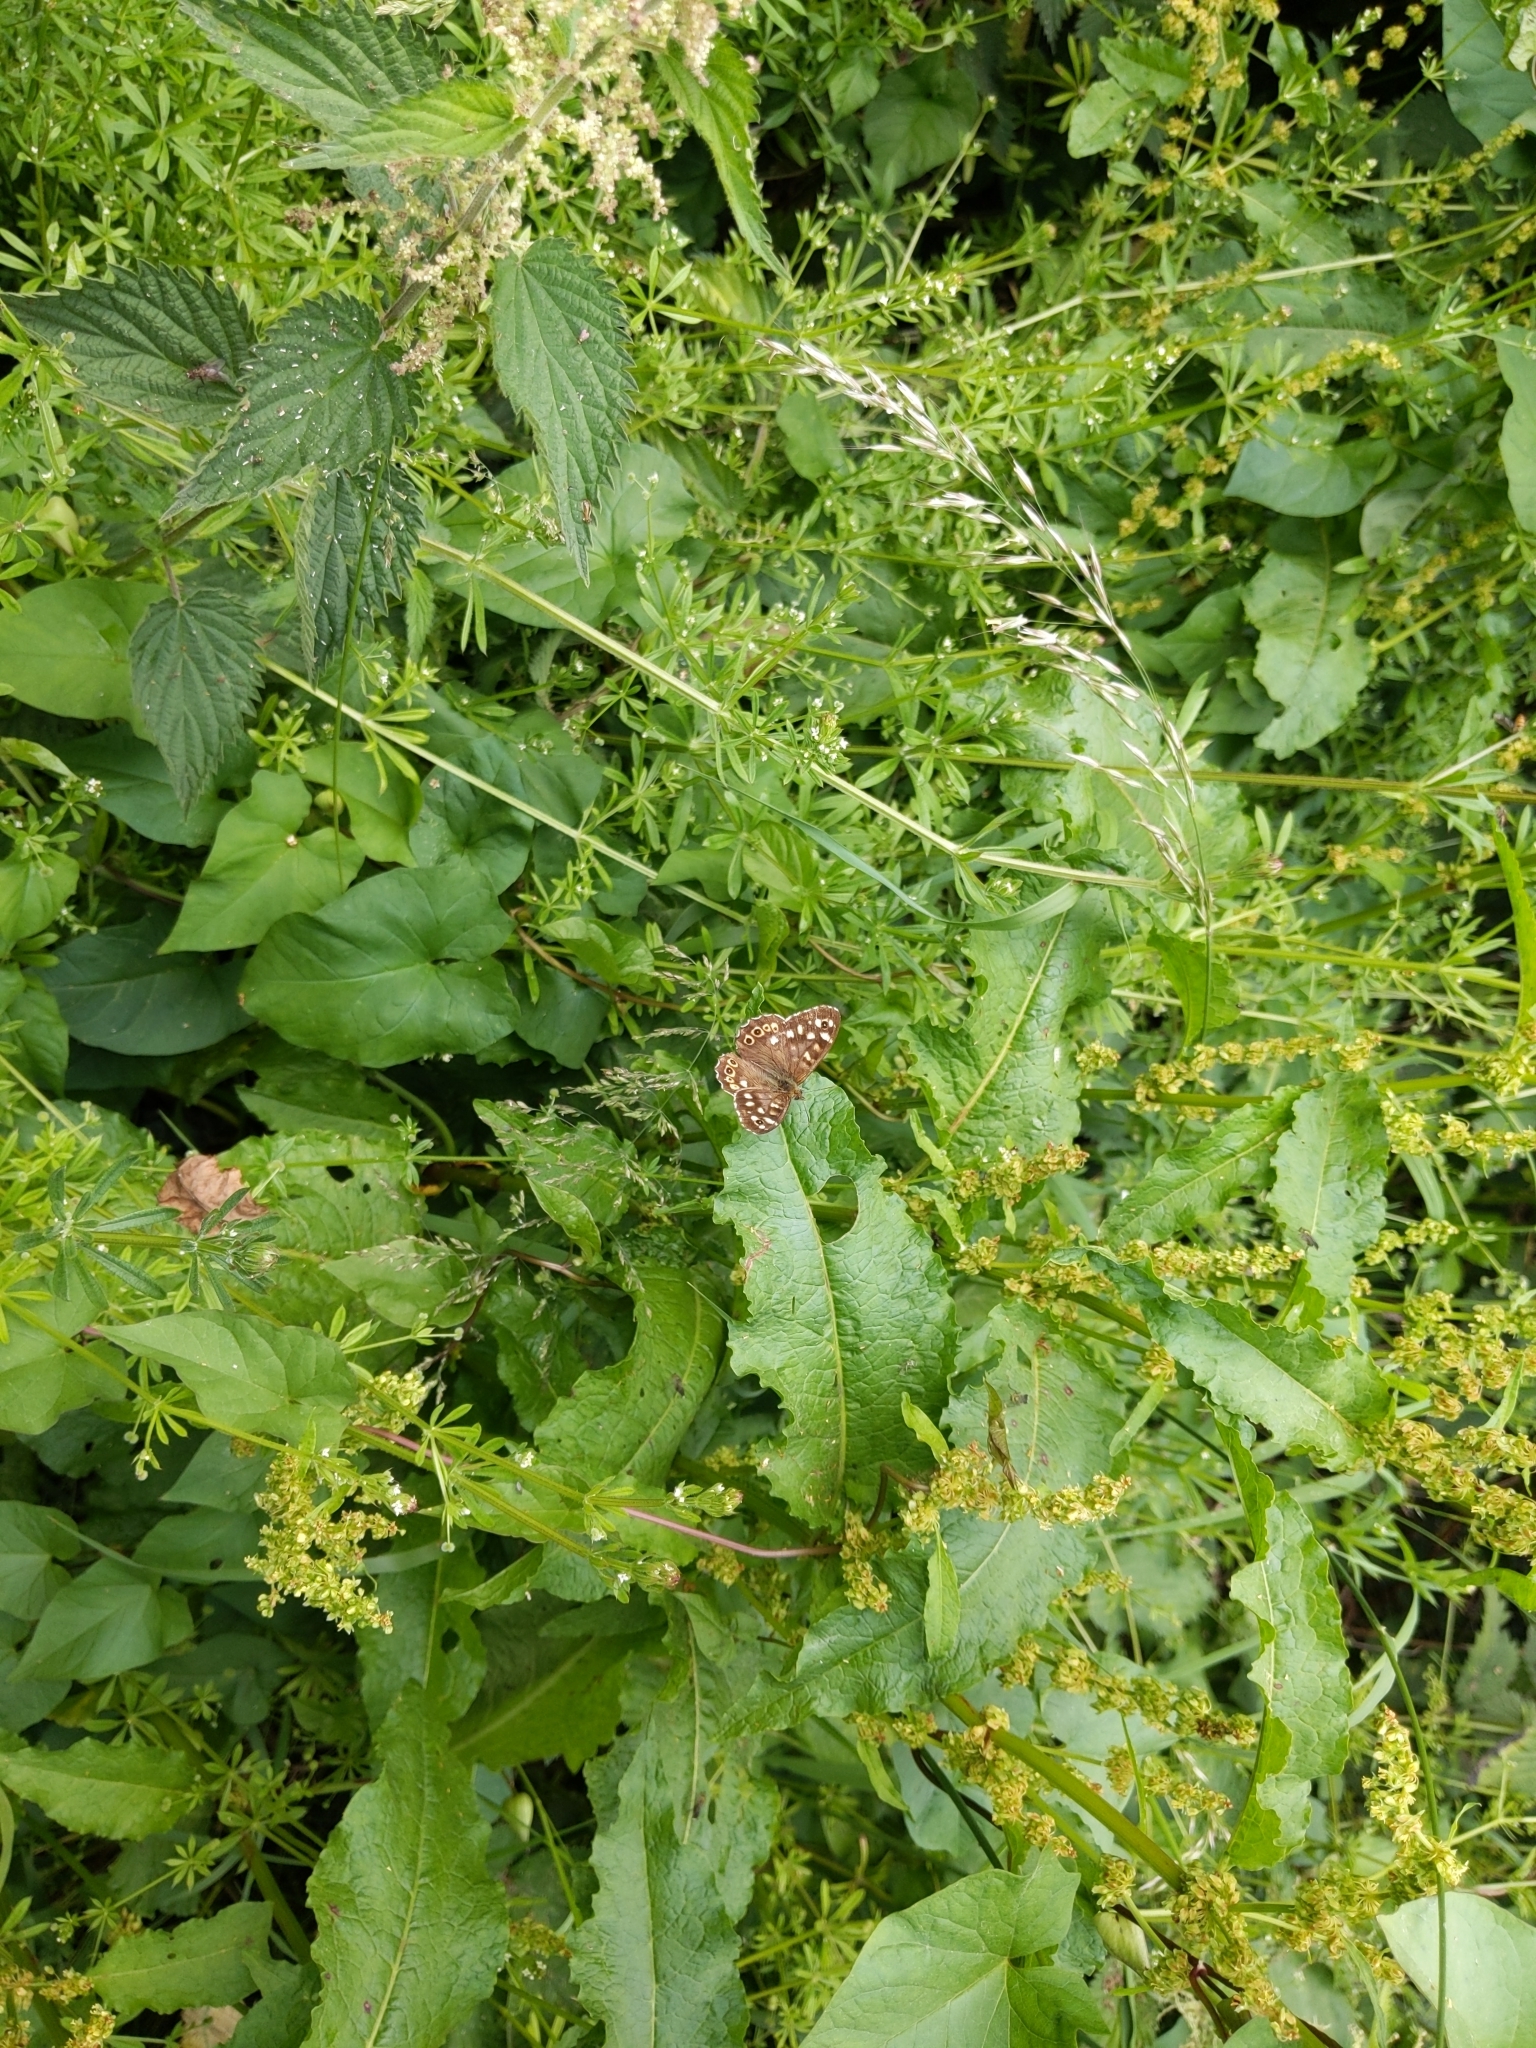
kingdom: Animalia
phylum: Arthropoda
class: Insecta
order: Lepidoptera
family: Nymphalidae
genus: Pararge
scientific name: Pararge aegeria
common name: Speckled wood
